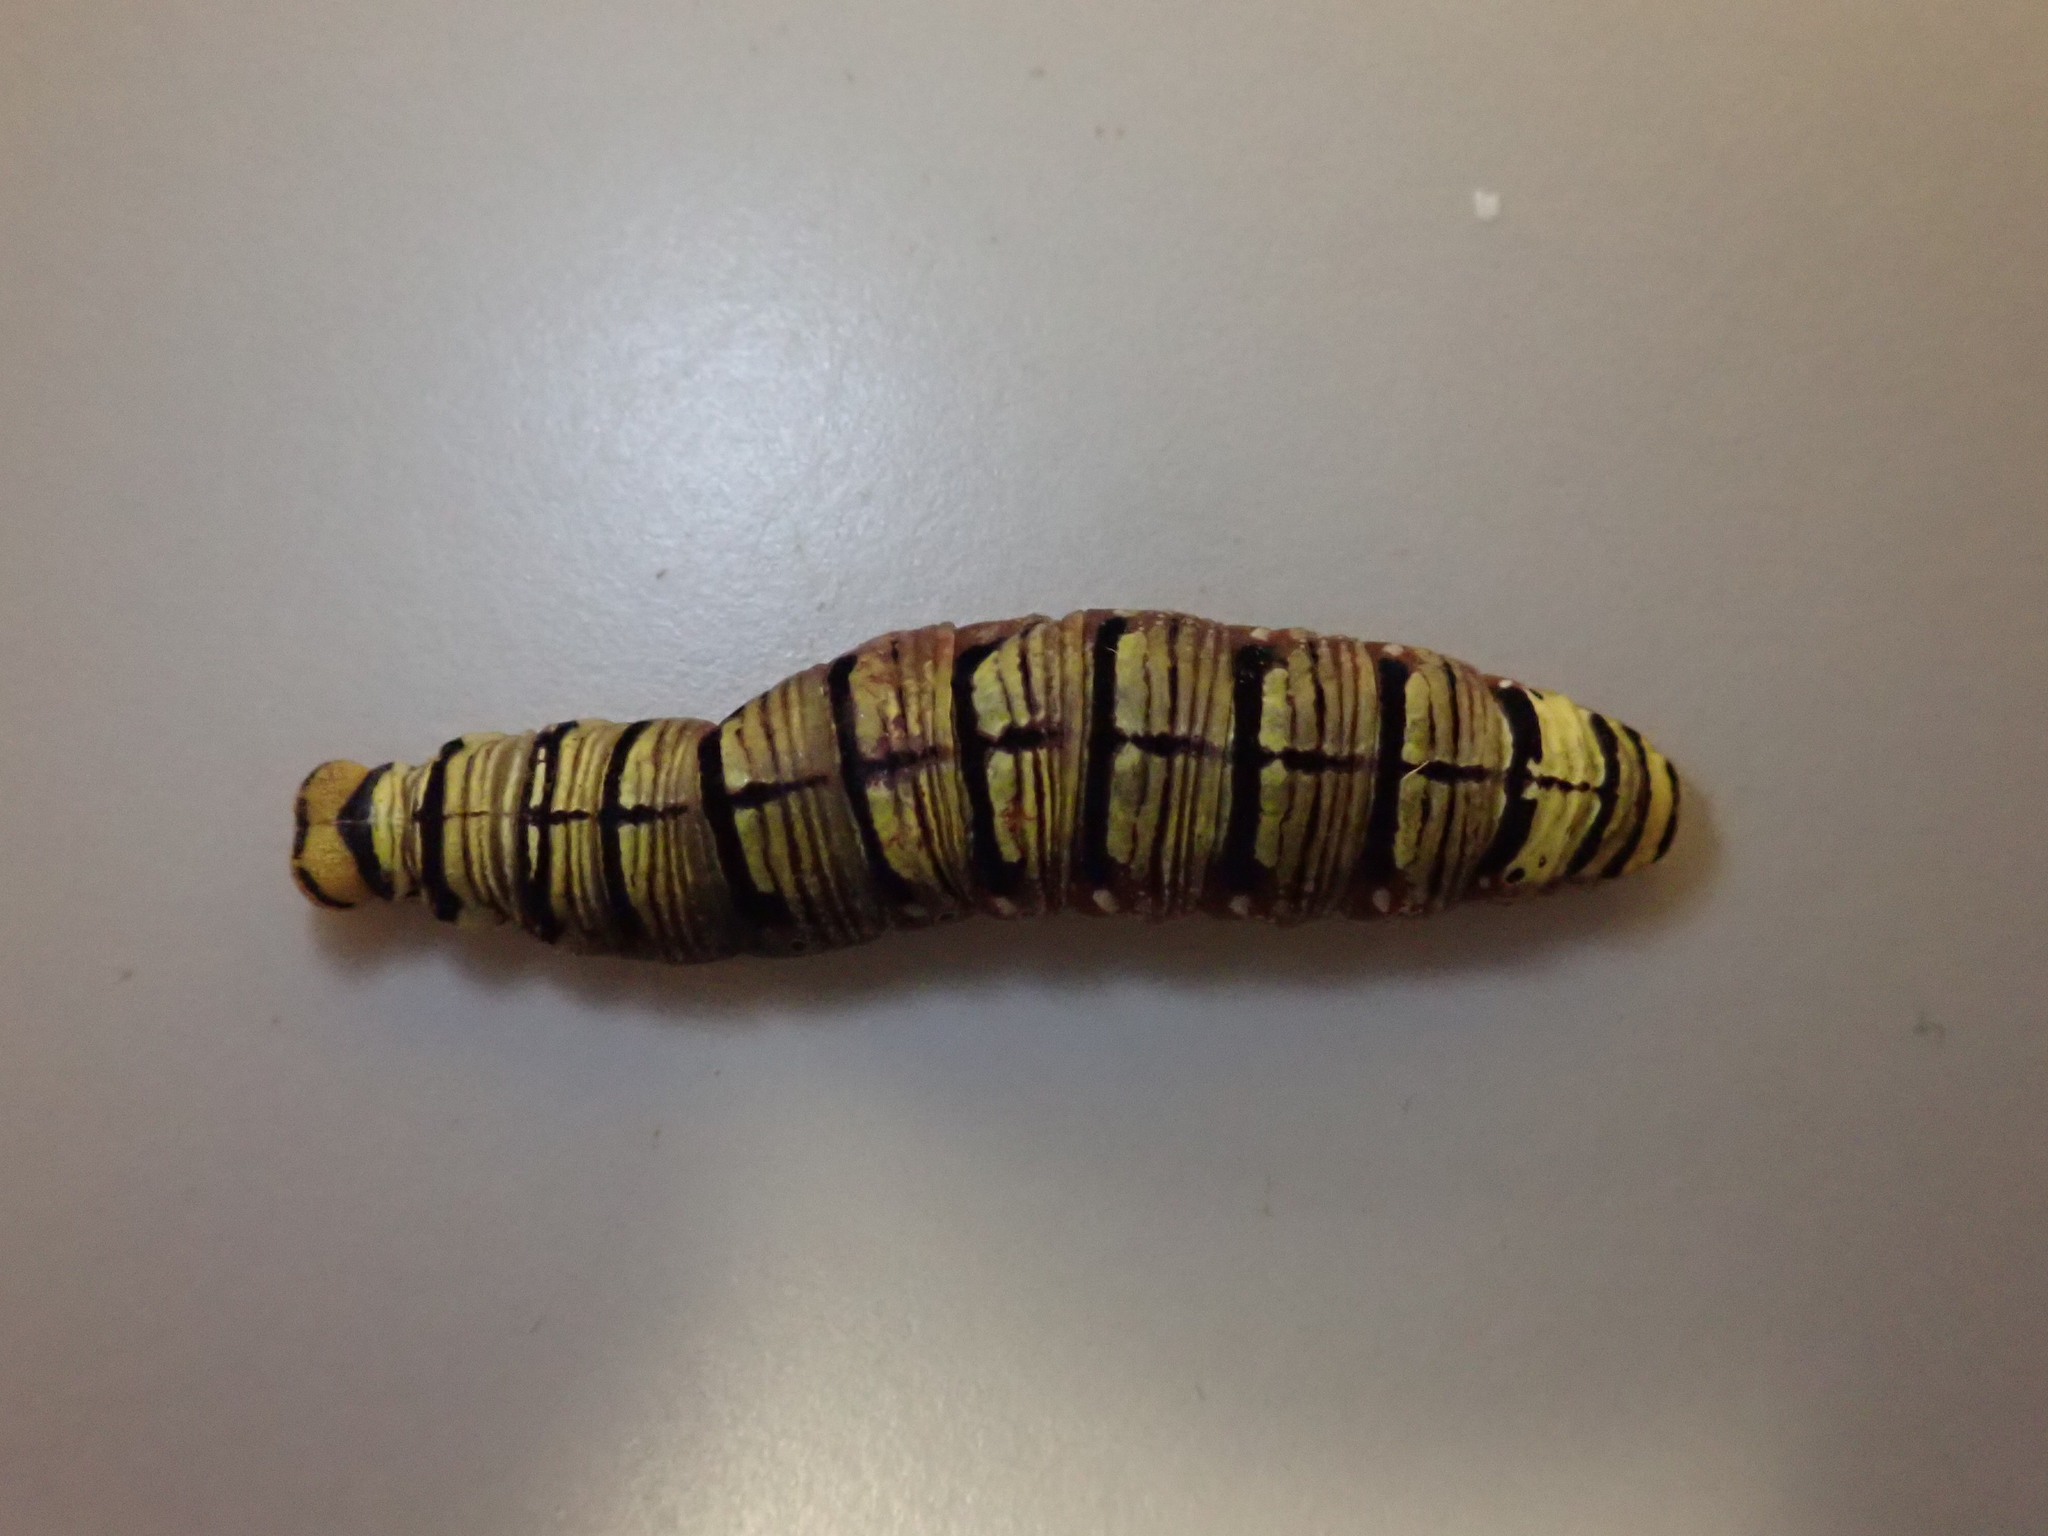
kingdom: Animalia
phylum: Arthropoda
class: Insecta
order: Lepidoptera
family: Hesperiidae
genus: Badamia
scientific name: Badamia exclamationis
